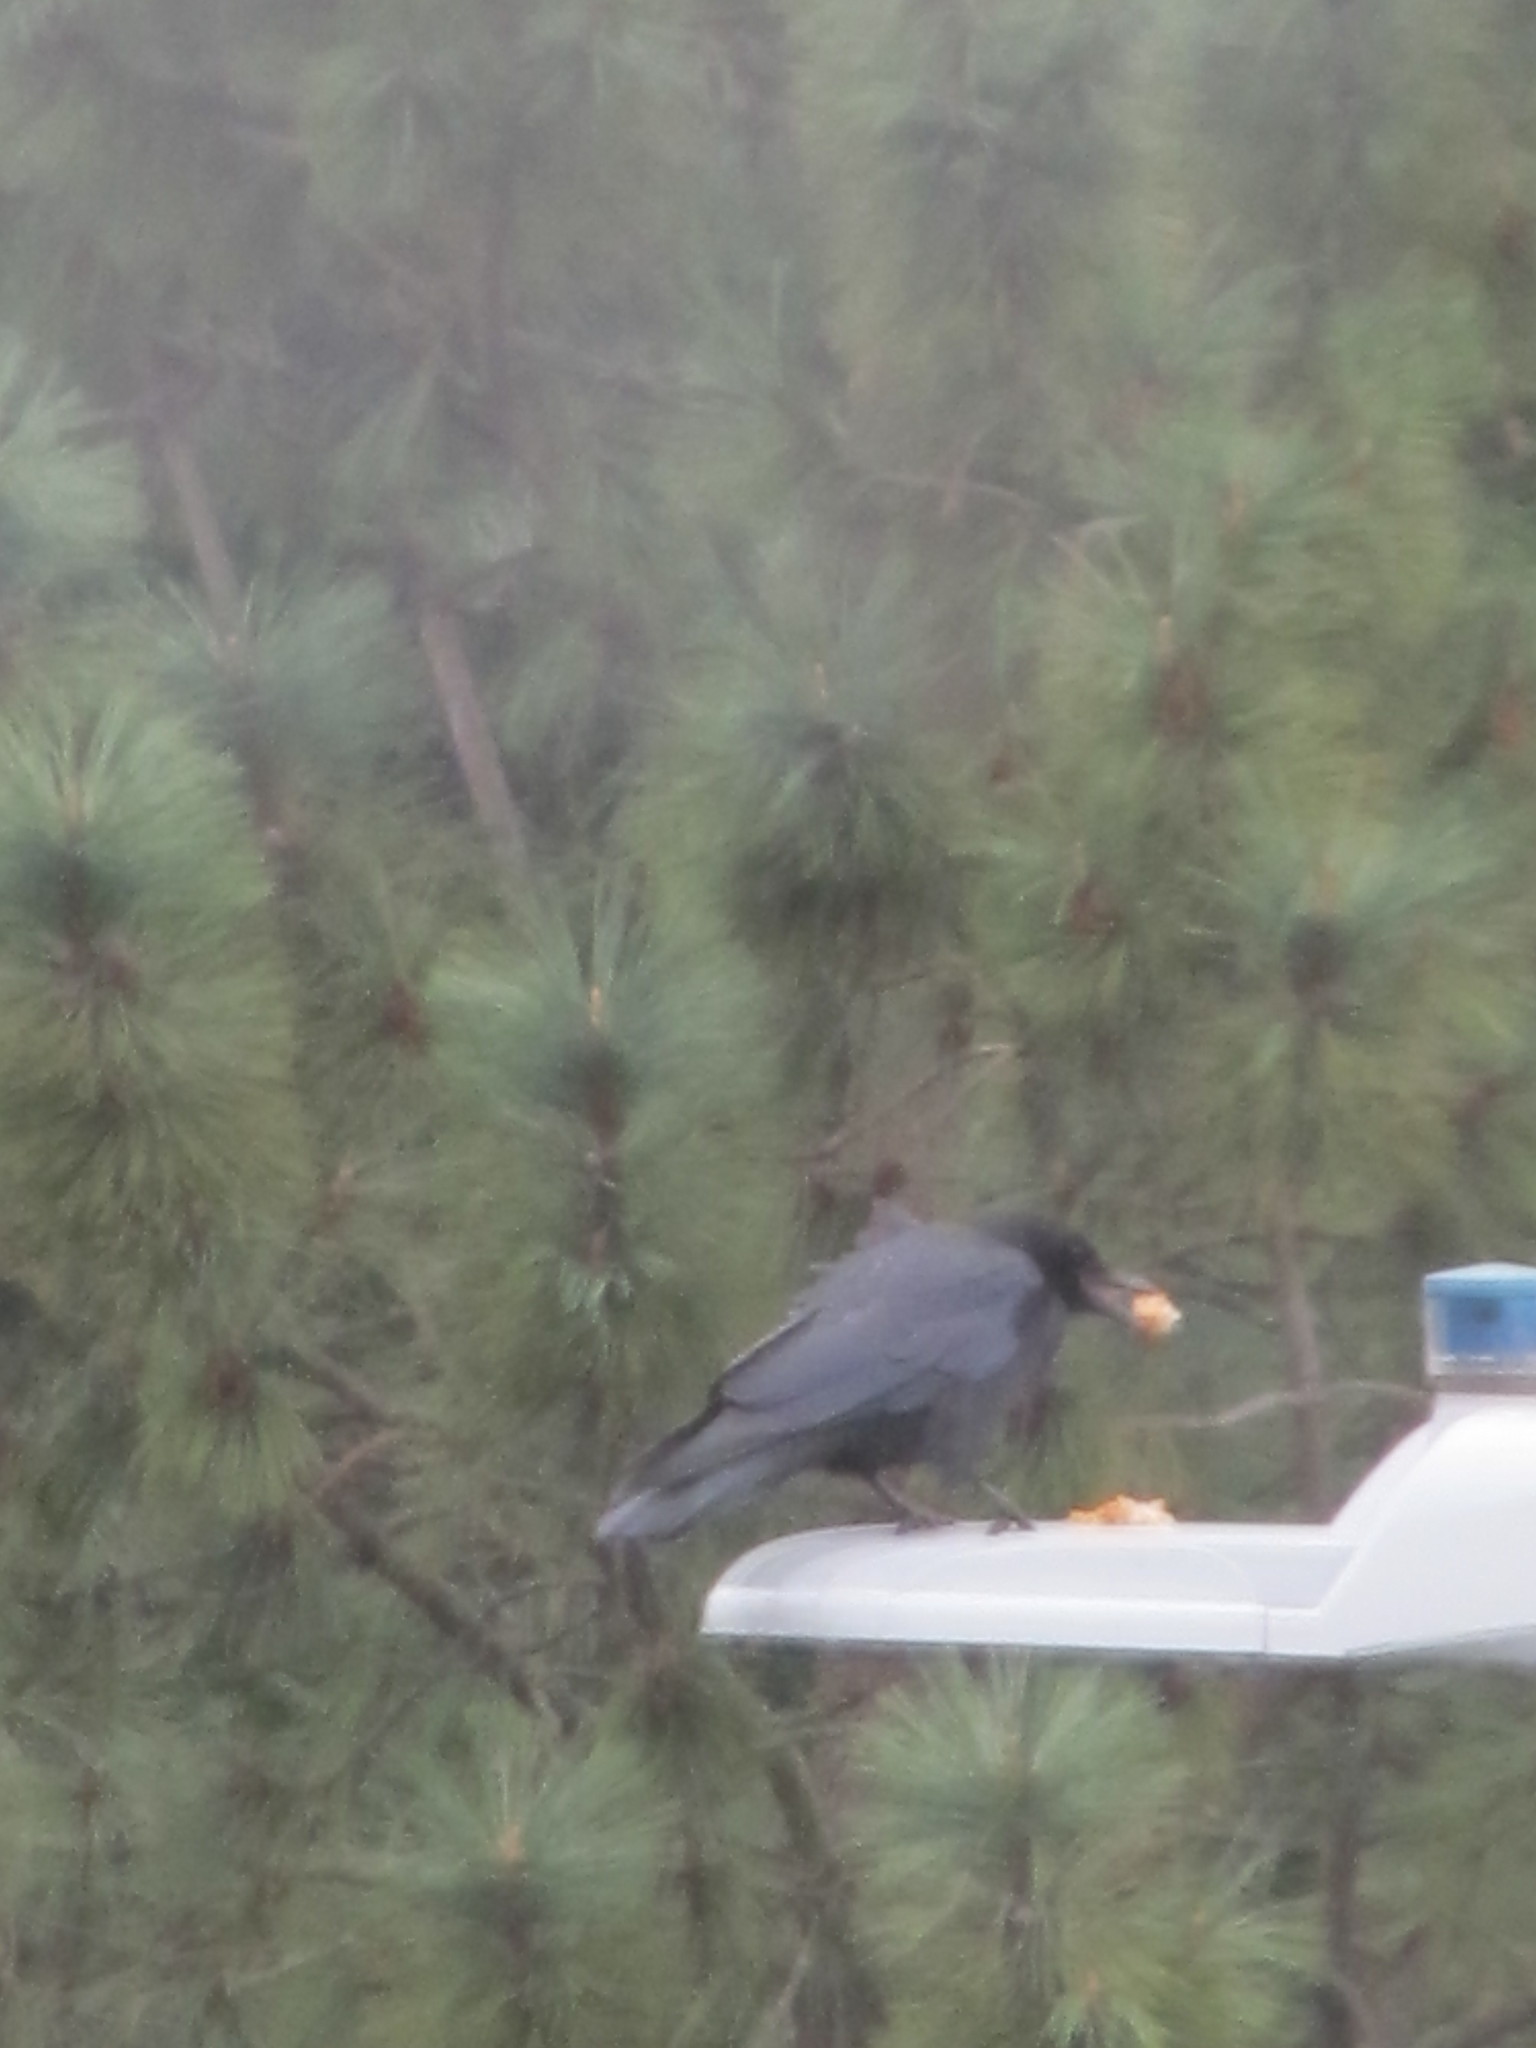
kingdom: Animalia
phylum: Chordata
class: Aves
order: Passeriformes
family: Corvidae
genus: Corvus
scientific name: Corvus brachyrhynchos
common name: American crow
